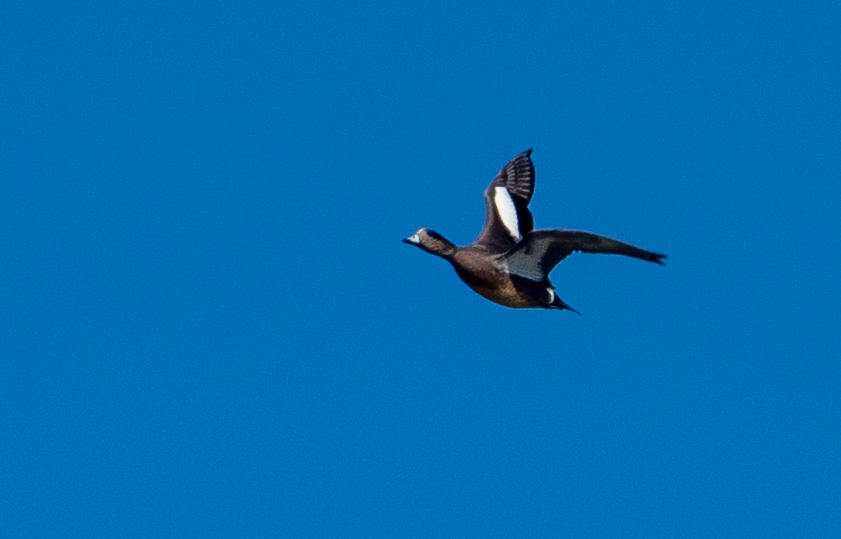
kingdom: Animalia
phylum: Chordata
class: Aves
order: Anseriformes
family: Anatidae
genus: Mareca
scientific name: Mareca americana
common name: American wigeon
